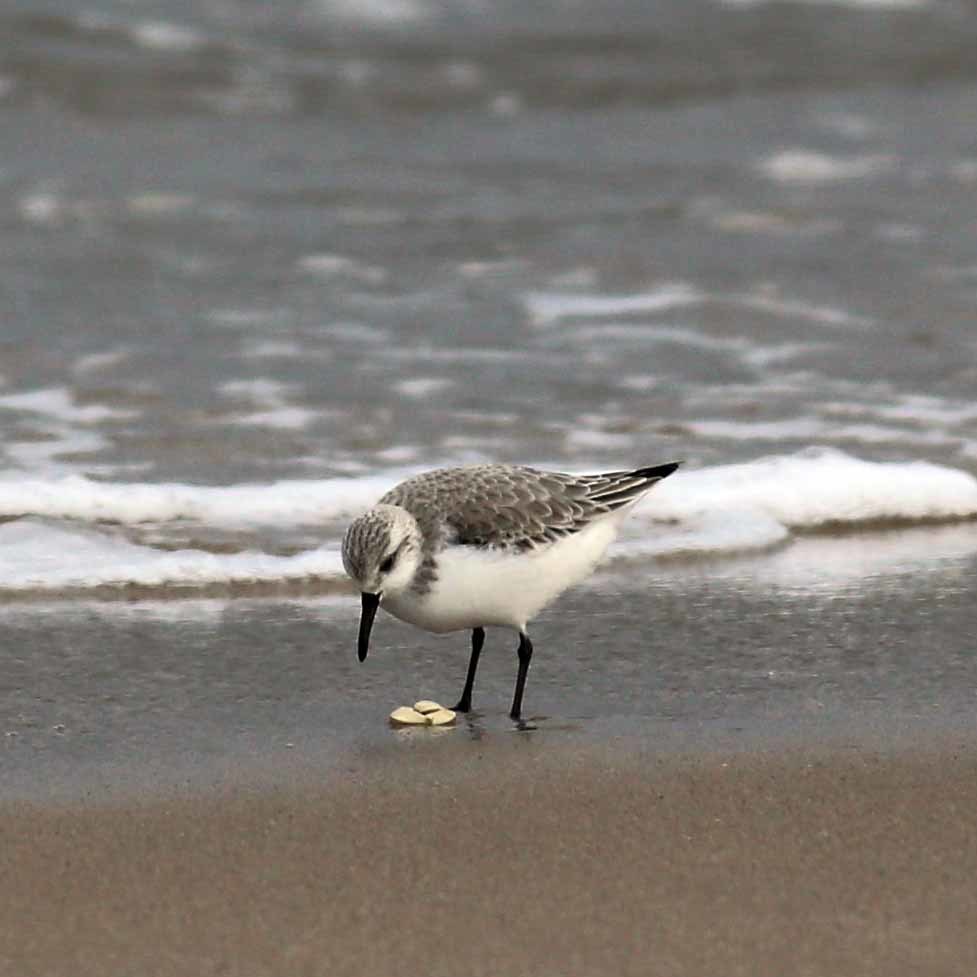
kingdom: Animalia
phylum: Chordata
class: Aves
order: Charadriiformes
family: Scolopacidae
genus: Calidris
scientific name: Calidris alba
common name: Sanderling
